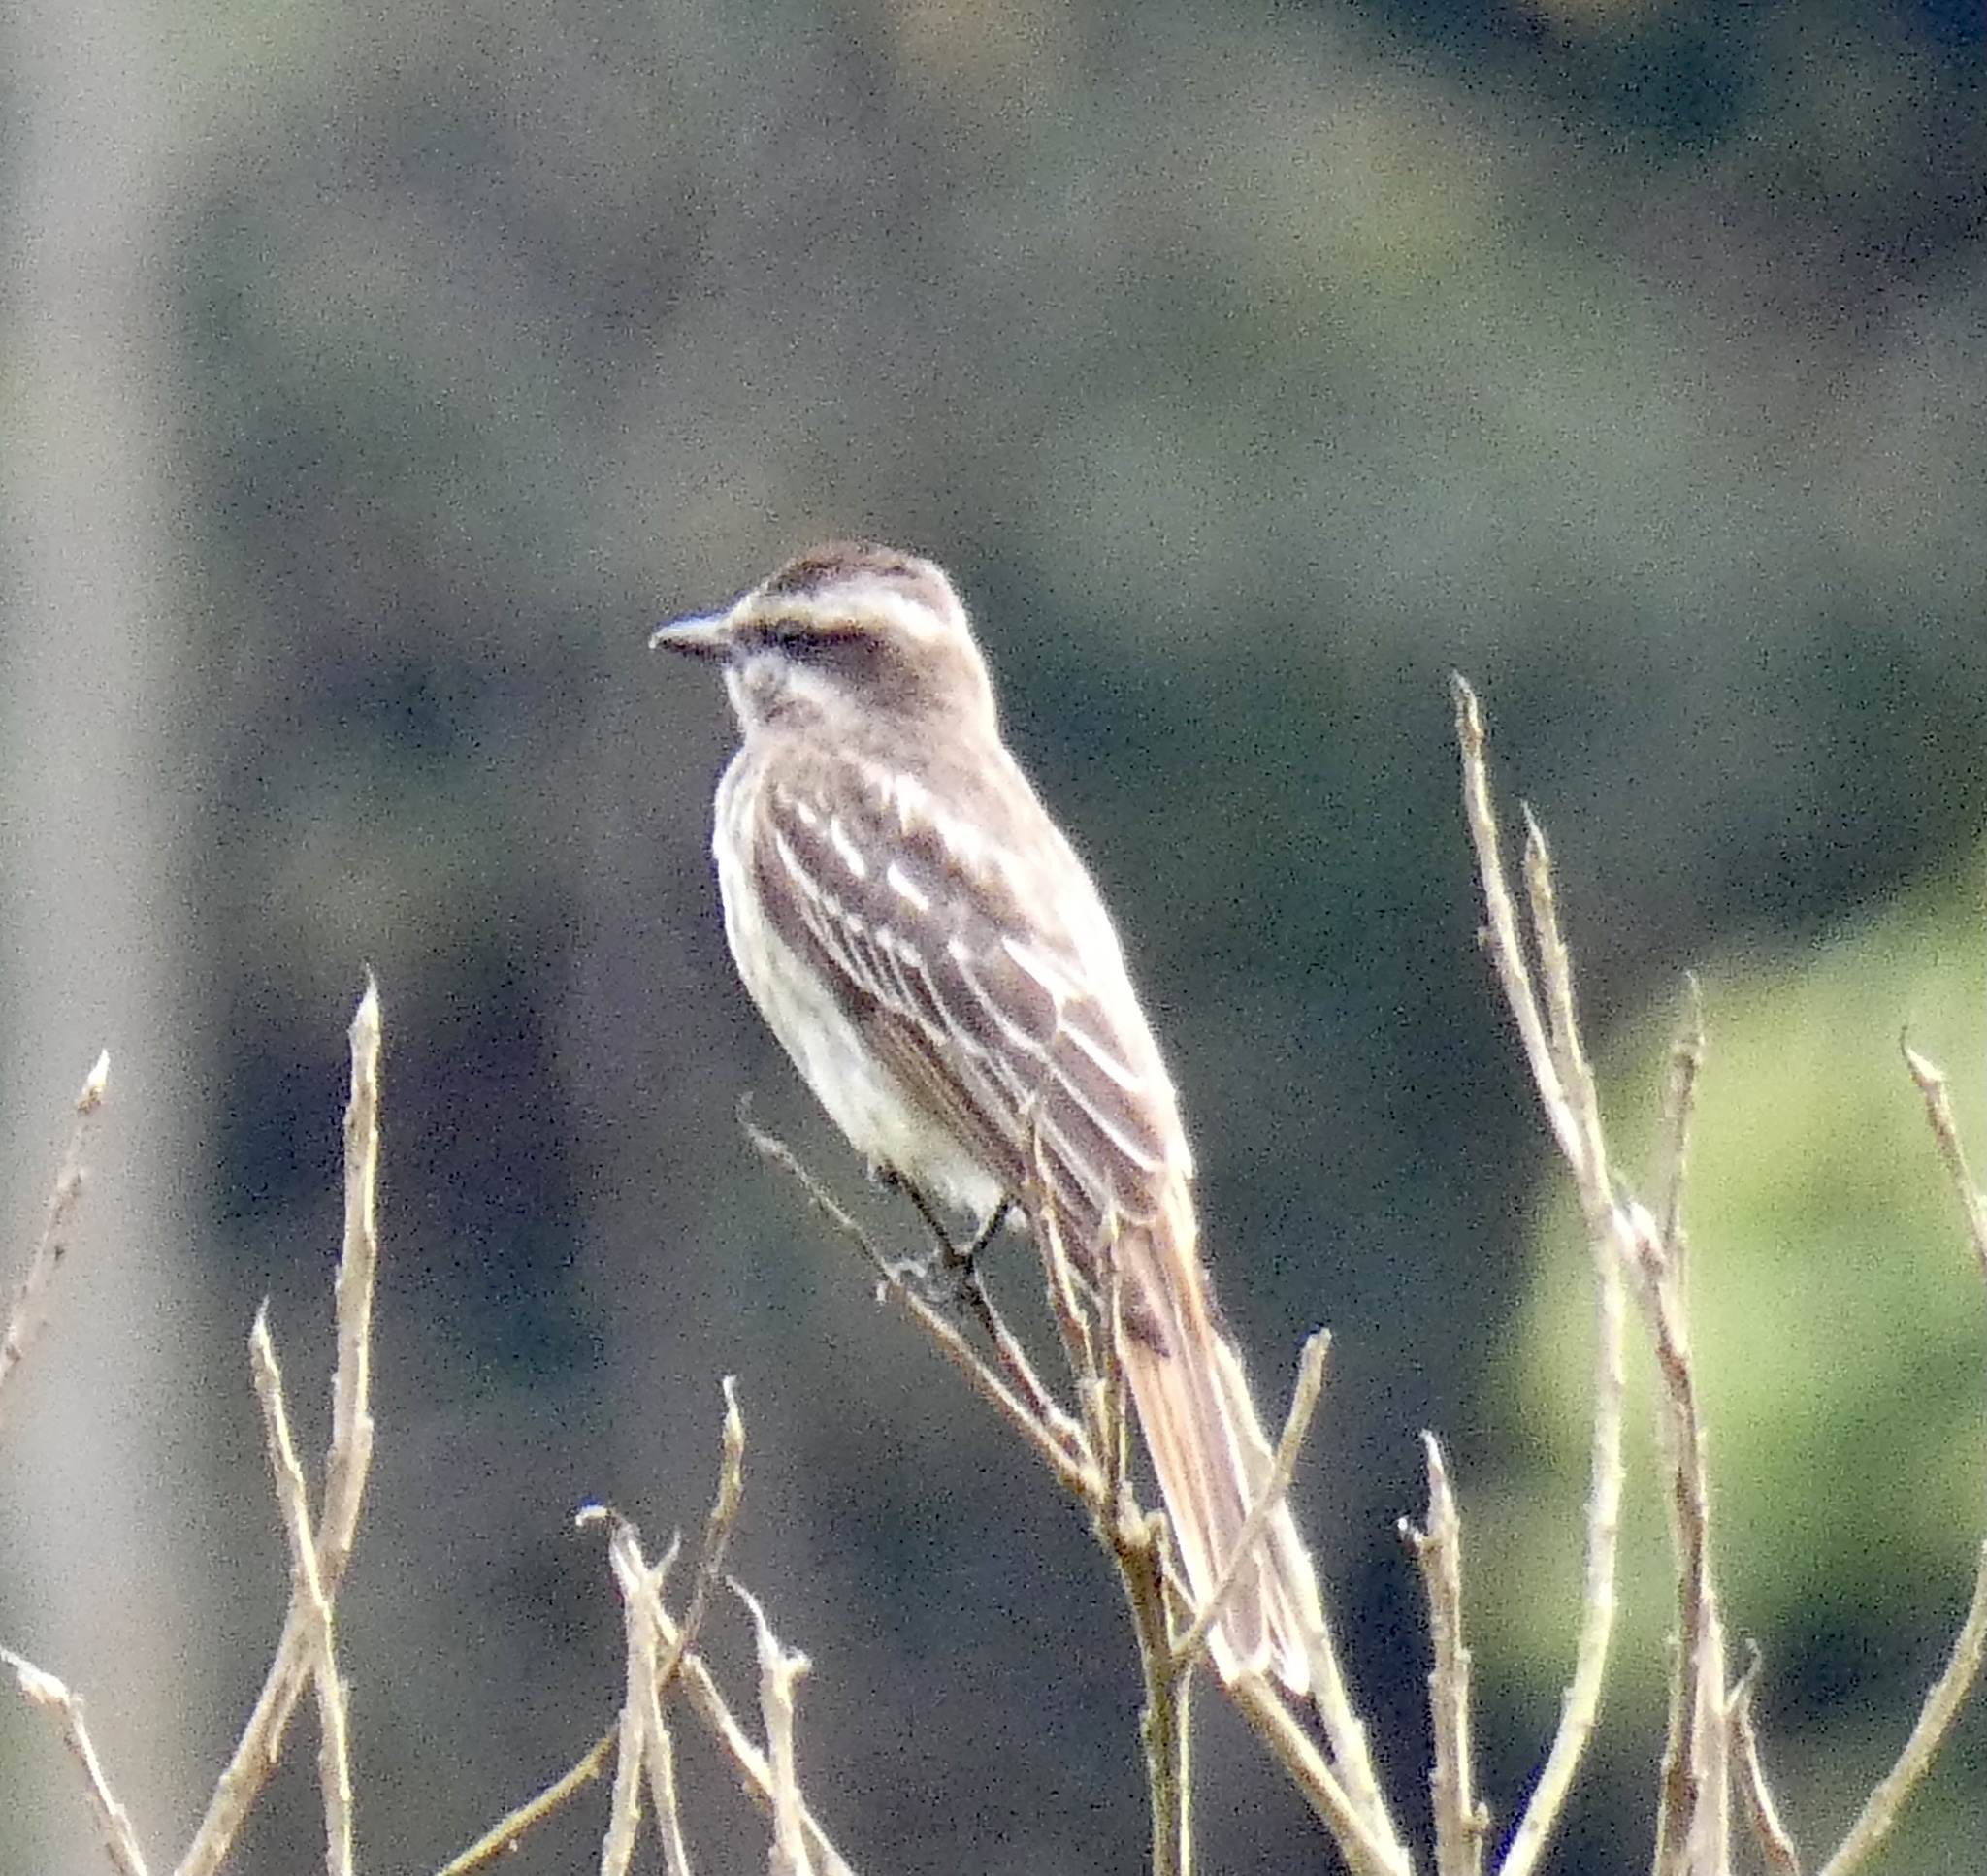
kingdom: Animalia
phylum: Chordata
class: Aves
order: Passeriformes
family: Tyrannidae
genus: Empidonomus
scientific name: Empidonomus varius
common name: Variegated flycatcher
